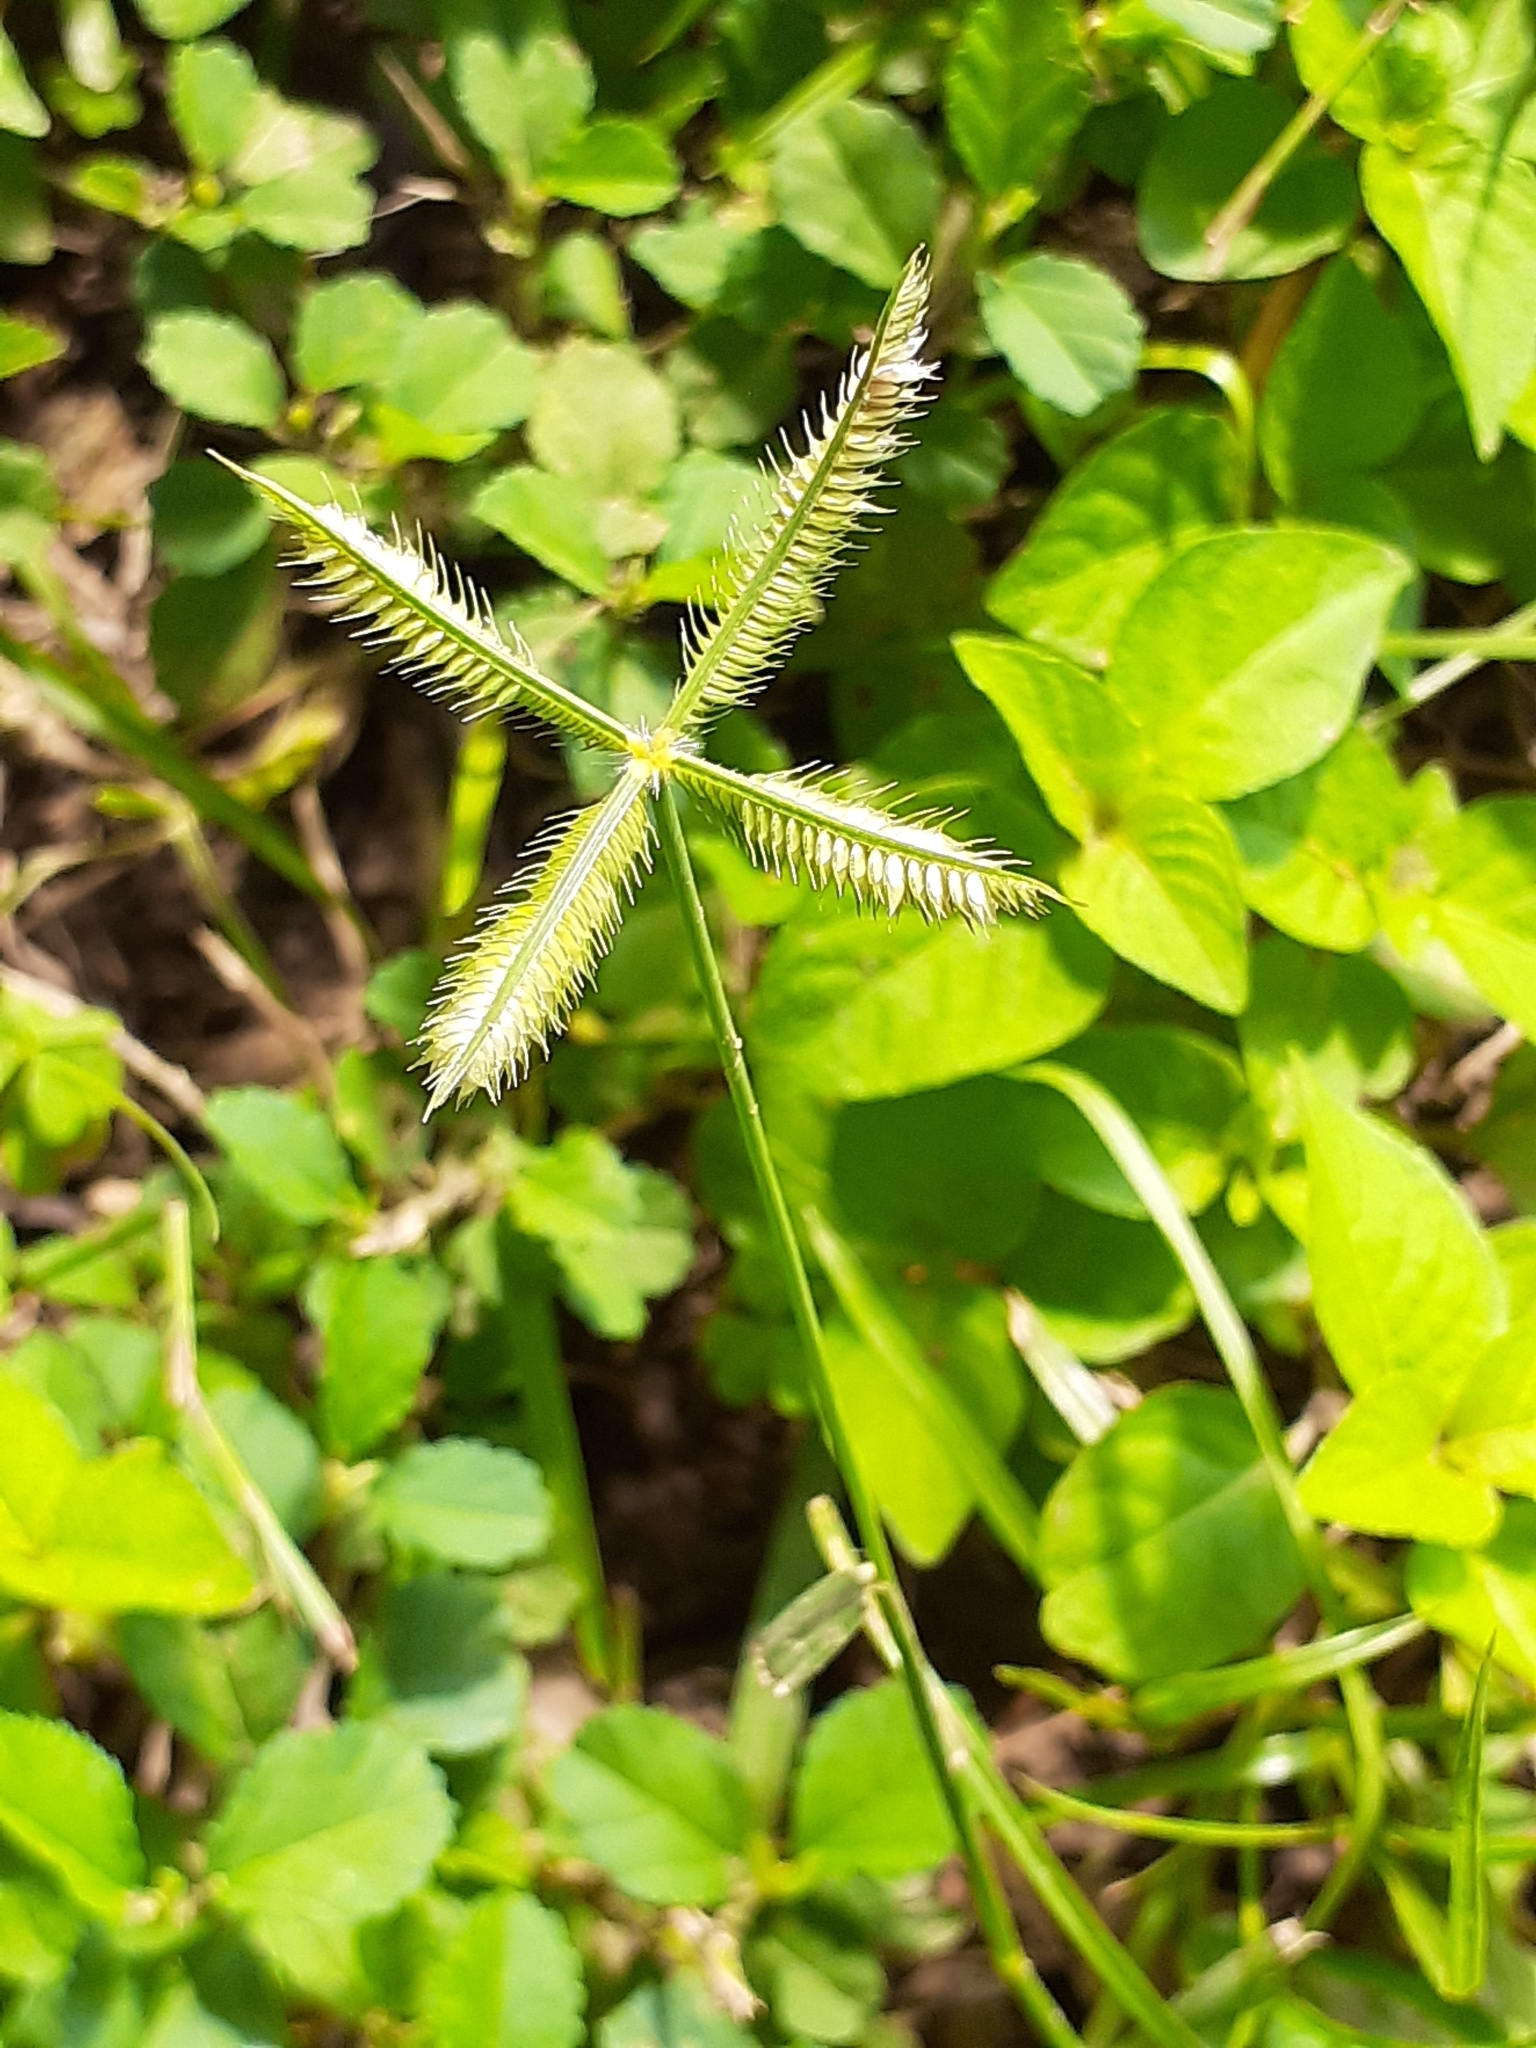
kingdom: Plantae
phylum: Tracheophyta
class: Liliopsida
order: Poales
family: Poaceae
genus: Dactyloctenium
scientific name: Dactyloctenium aegyptium
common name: Egyptian grass
